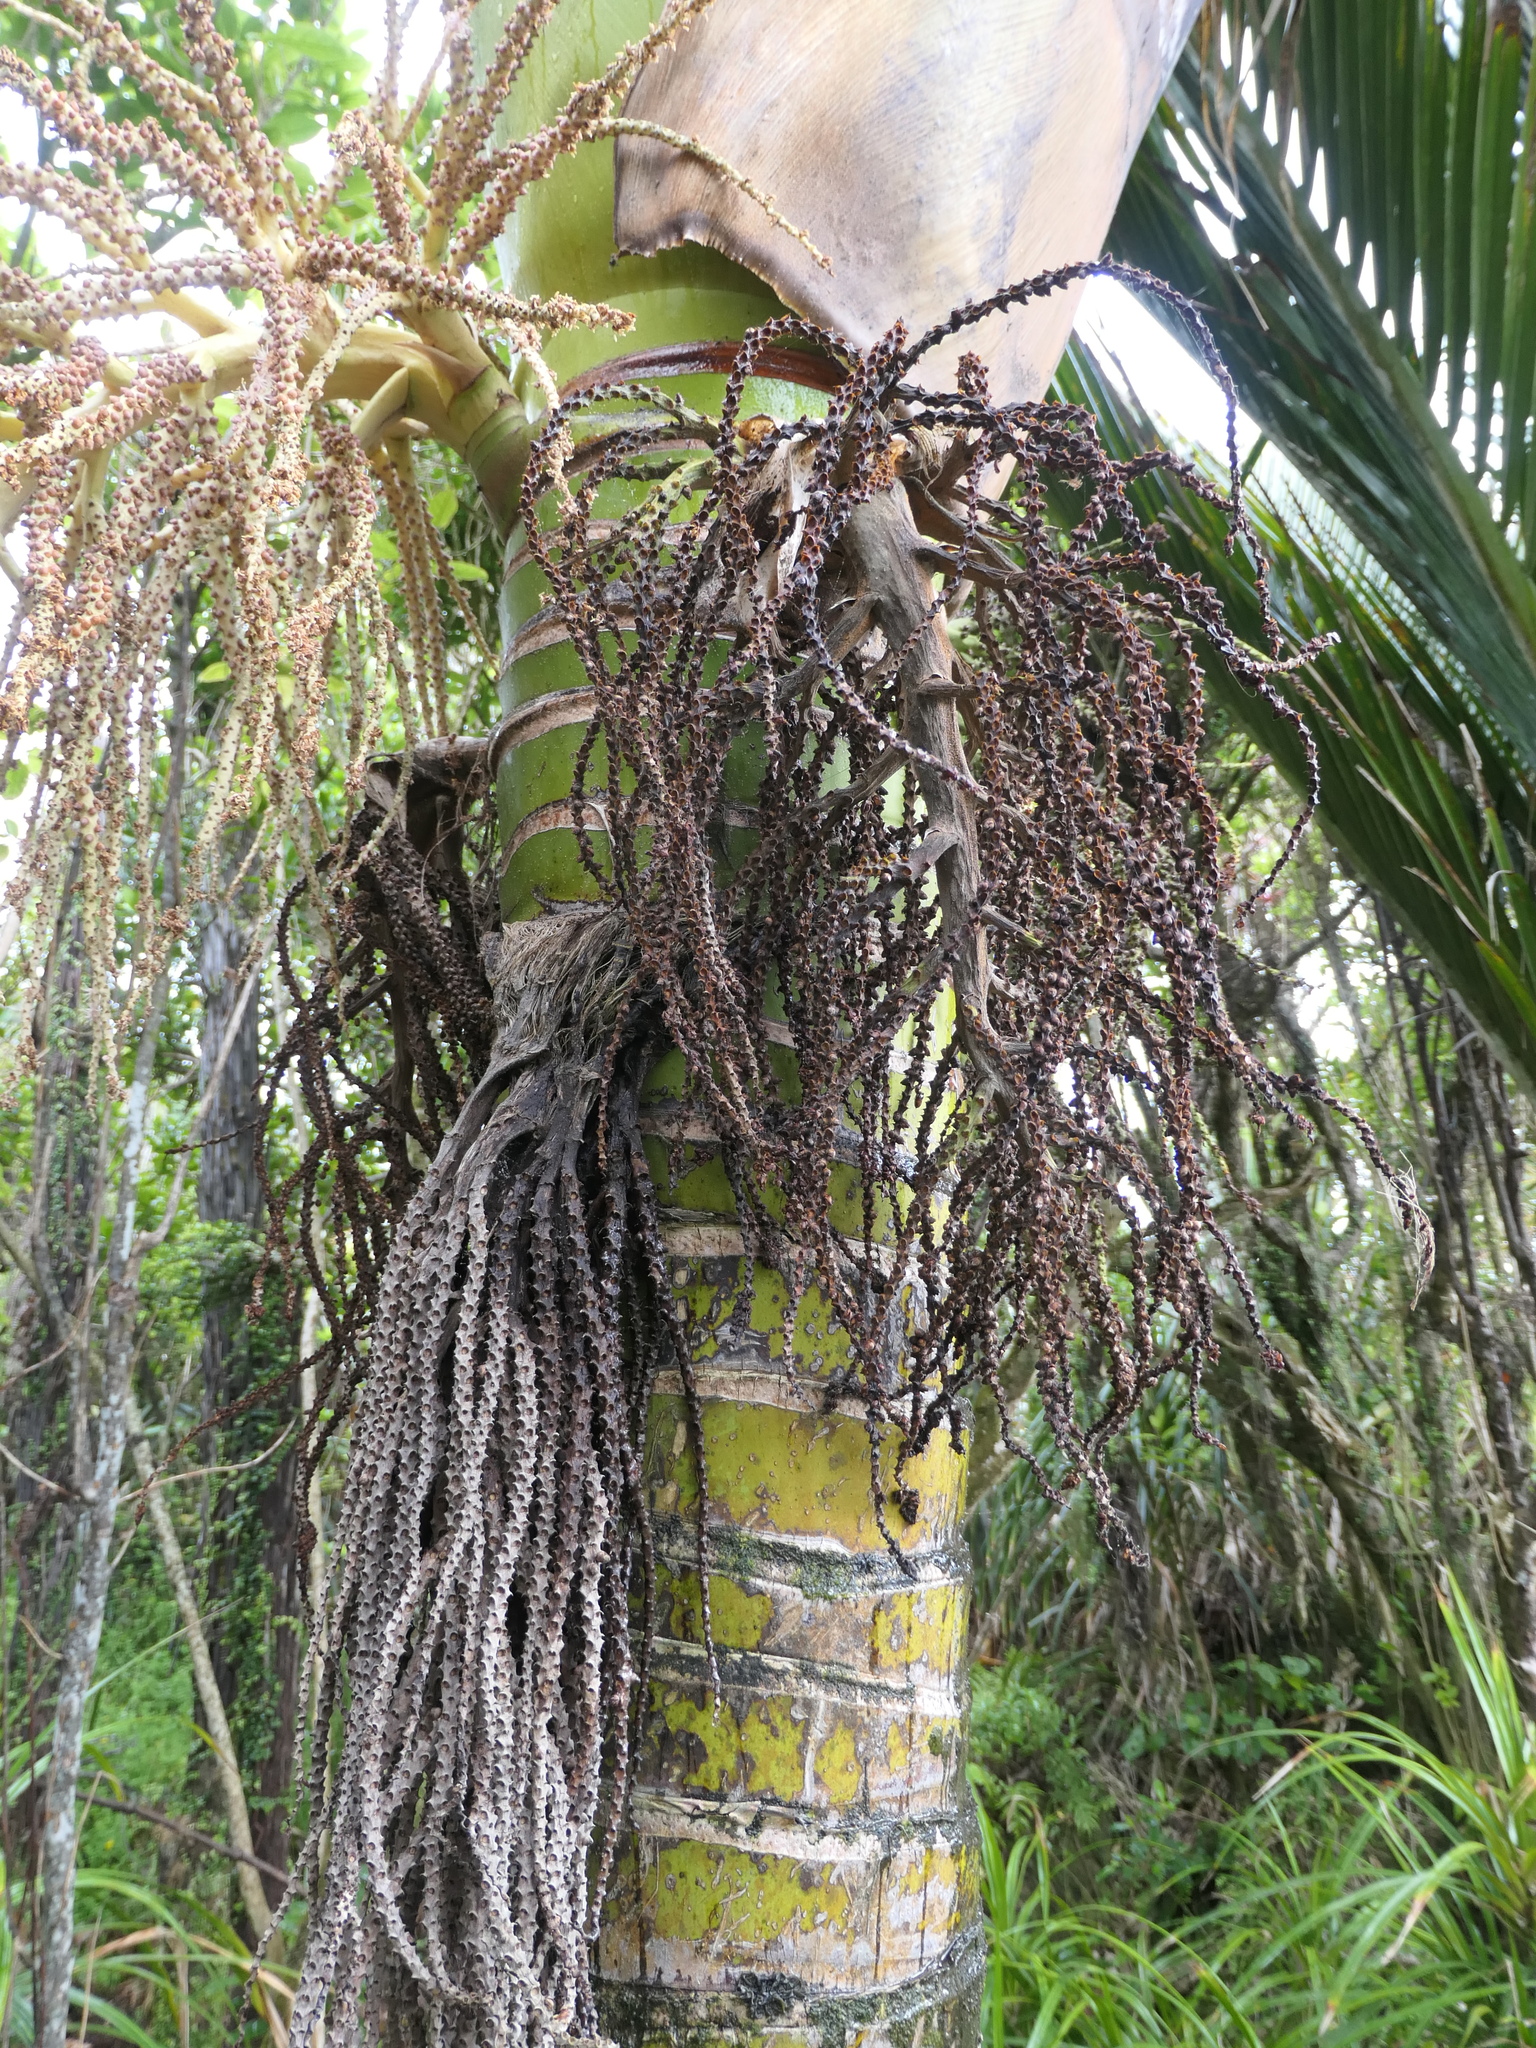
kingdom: Plantae
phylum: Tracheophyta
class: Liliopsida
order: Arecales
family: Arecaceae
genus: Rhopalostylis
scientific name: Rhopalostylis sapida
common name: Feather-duster palm
